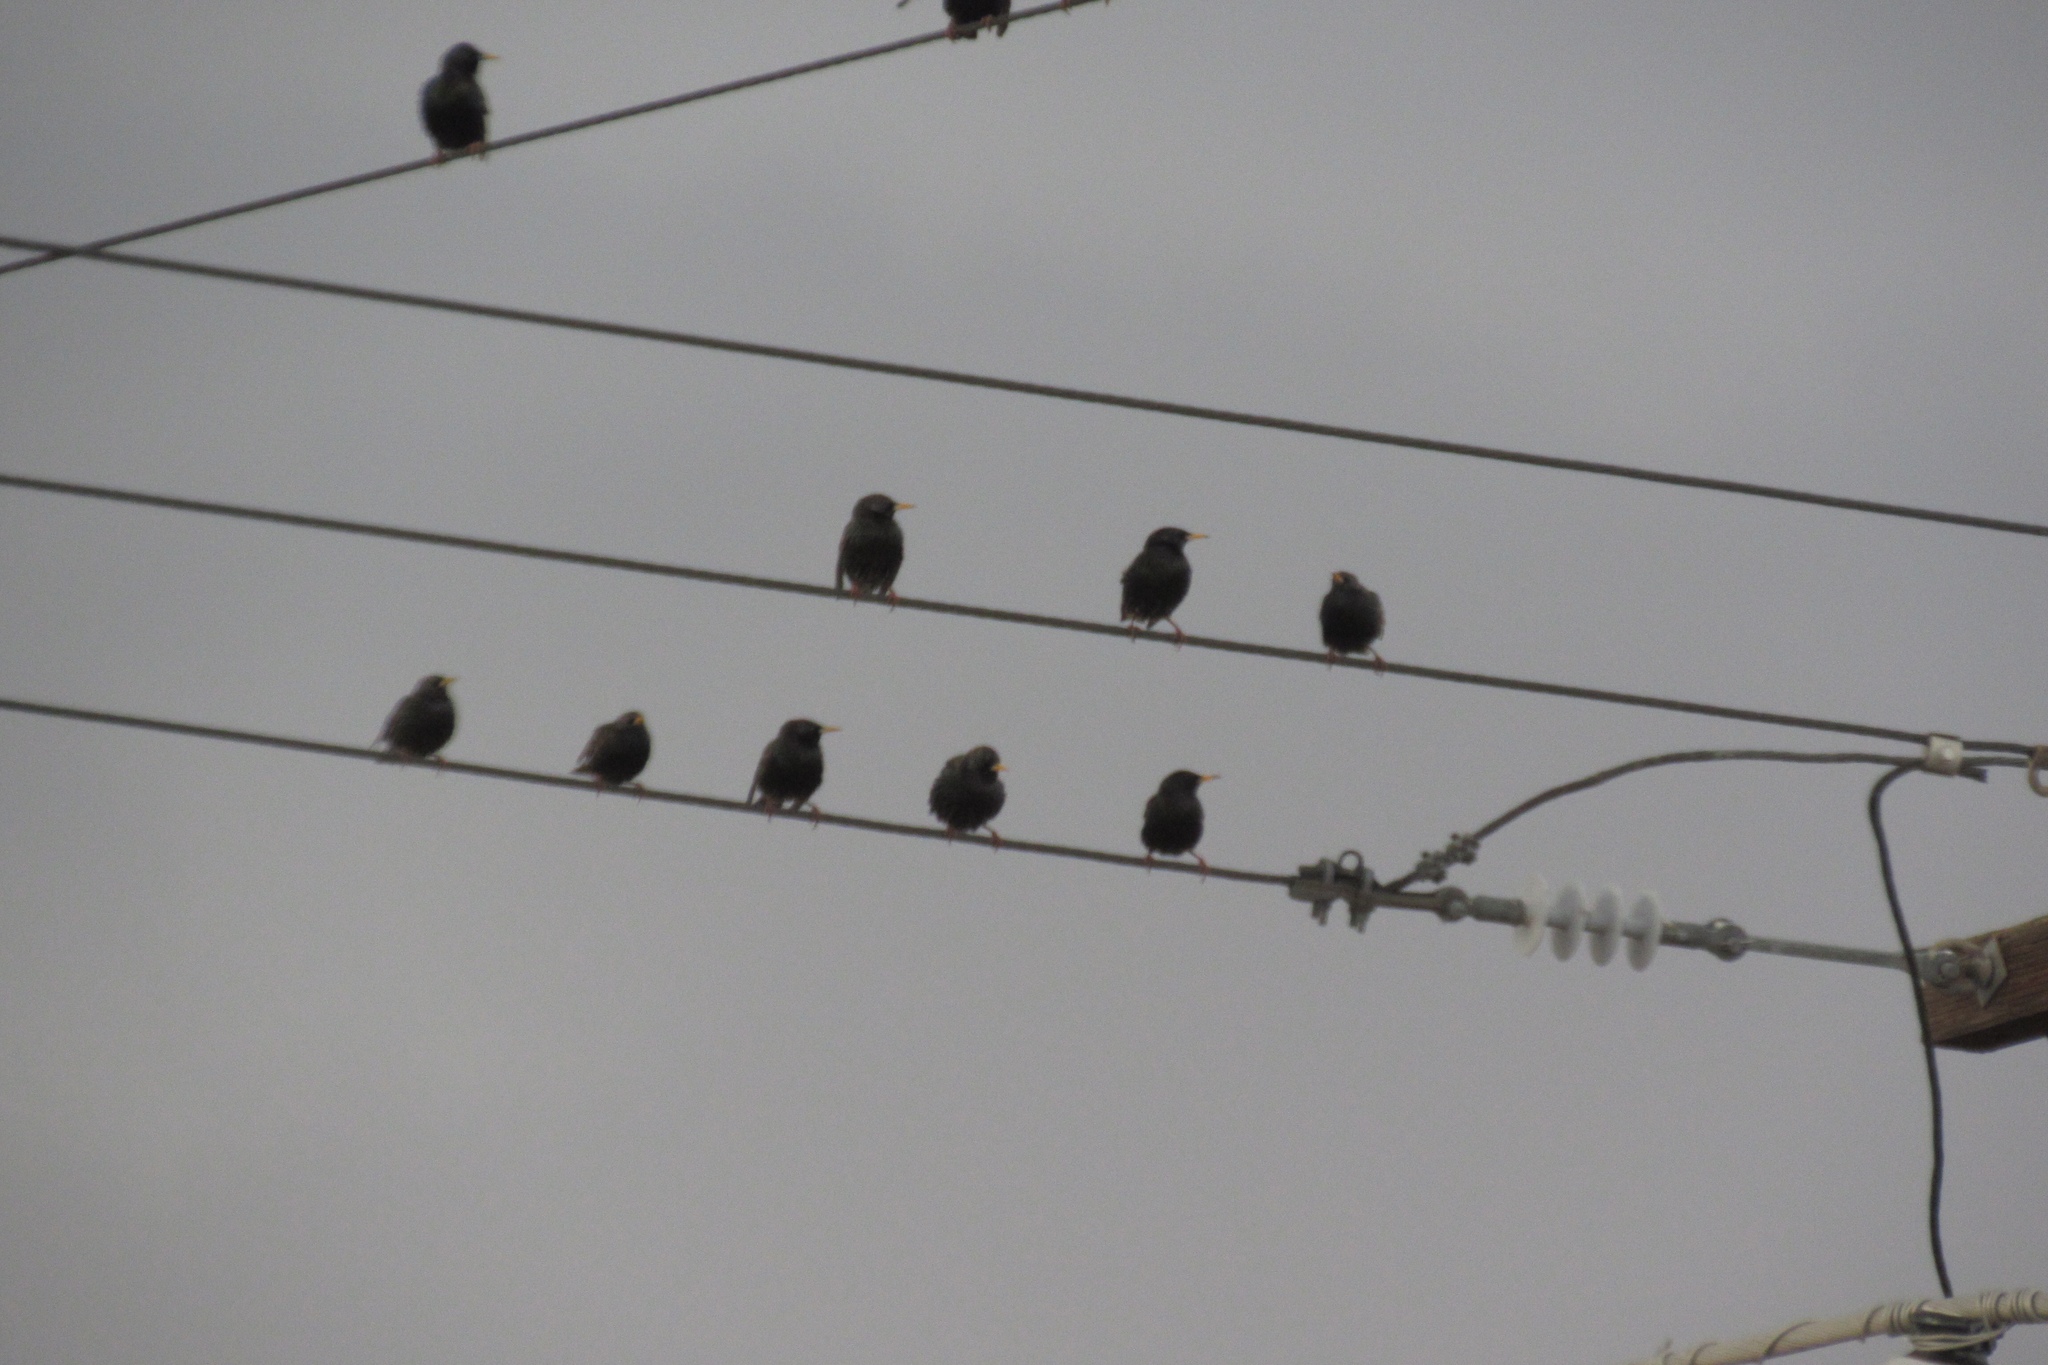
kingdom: Animalia
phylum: Chordata
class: Aves
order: Passeriformes
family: Sturnidae
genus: Sturnus
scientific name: Sturnus vulgaris
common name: Common starling
